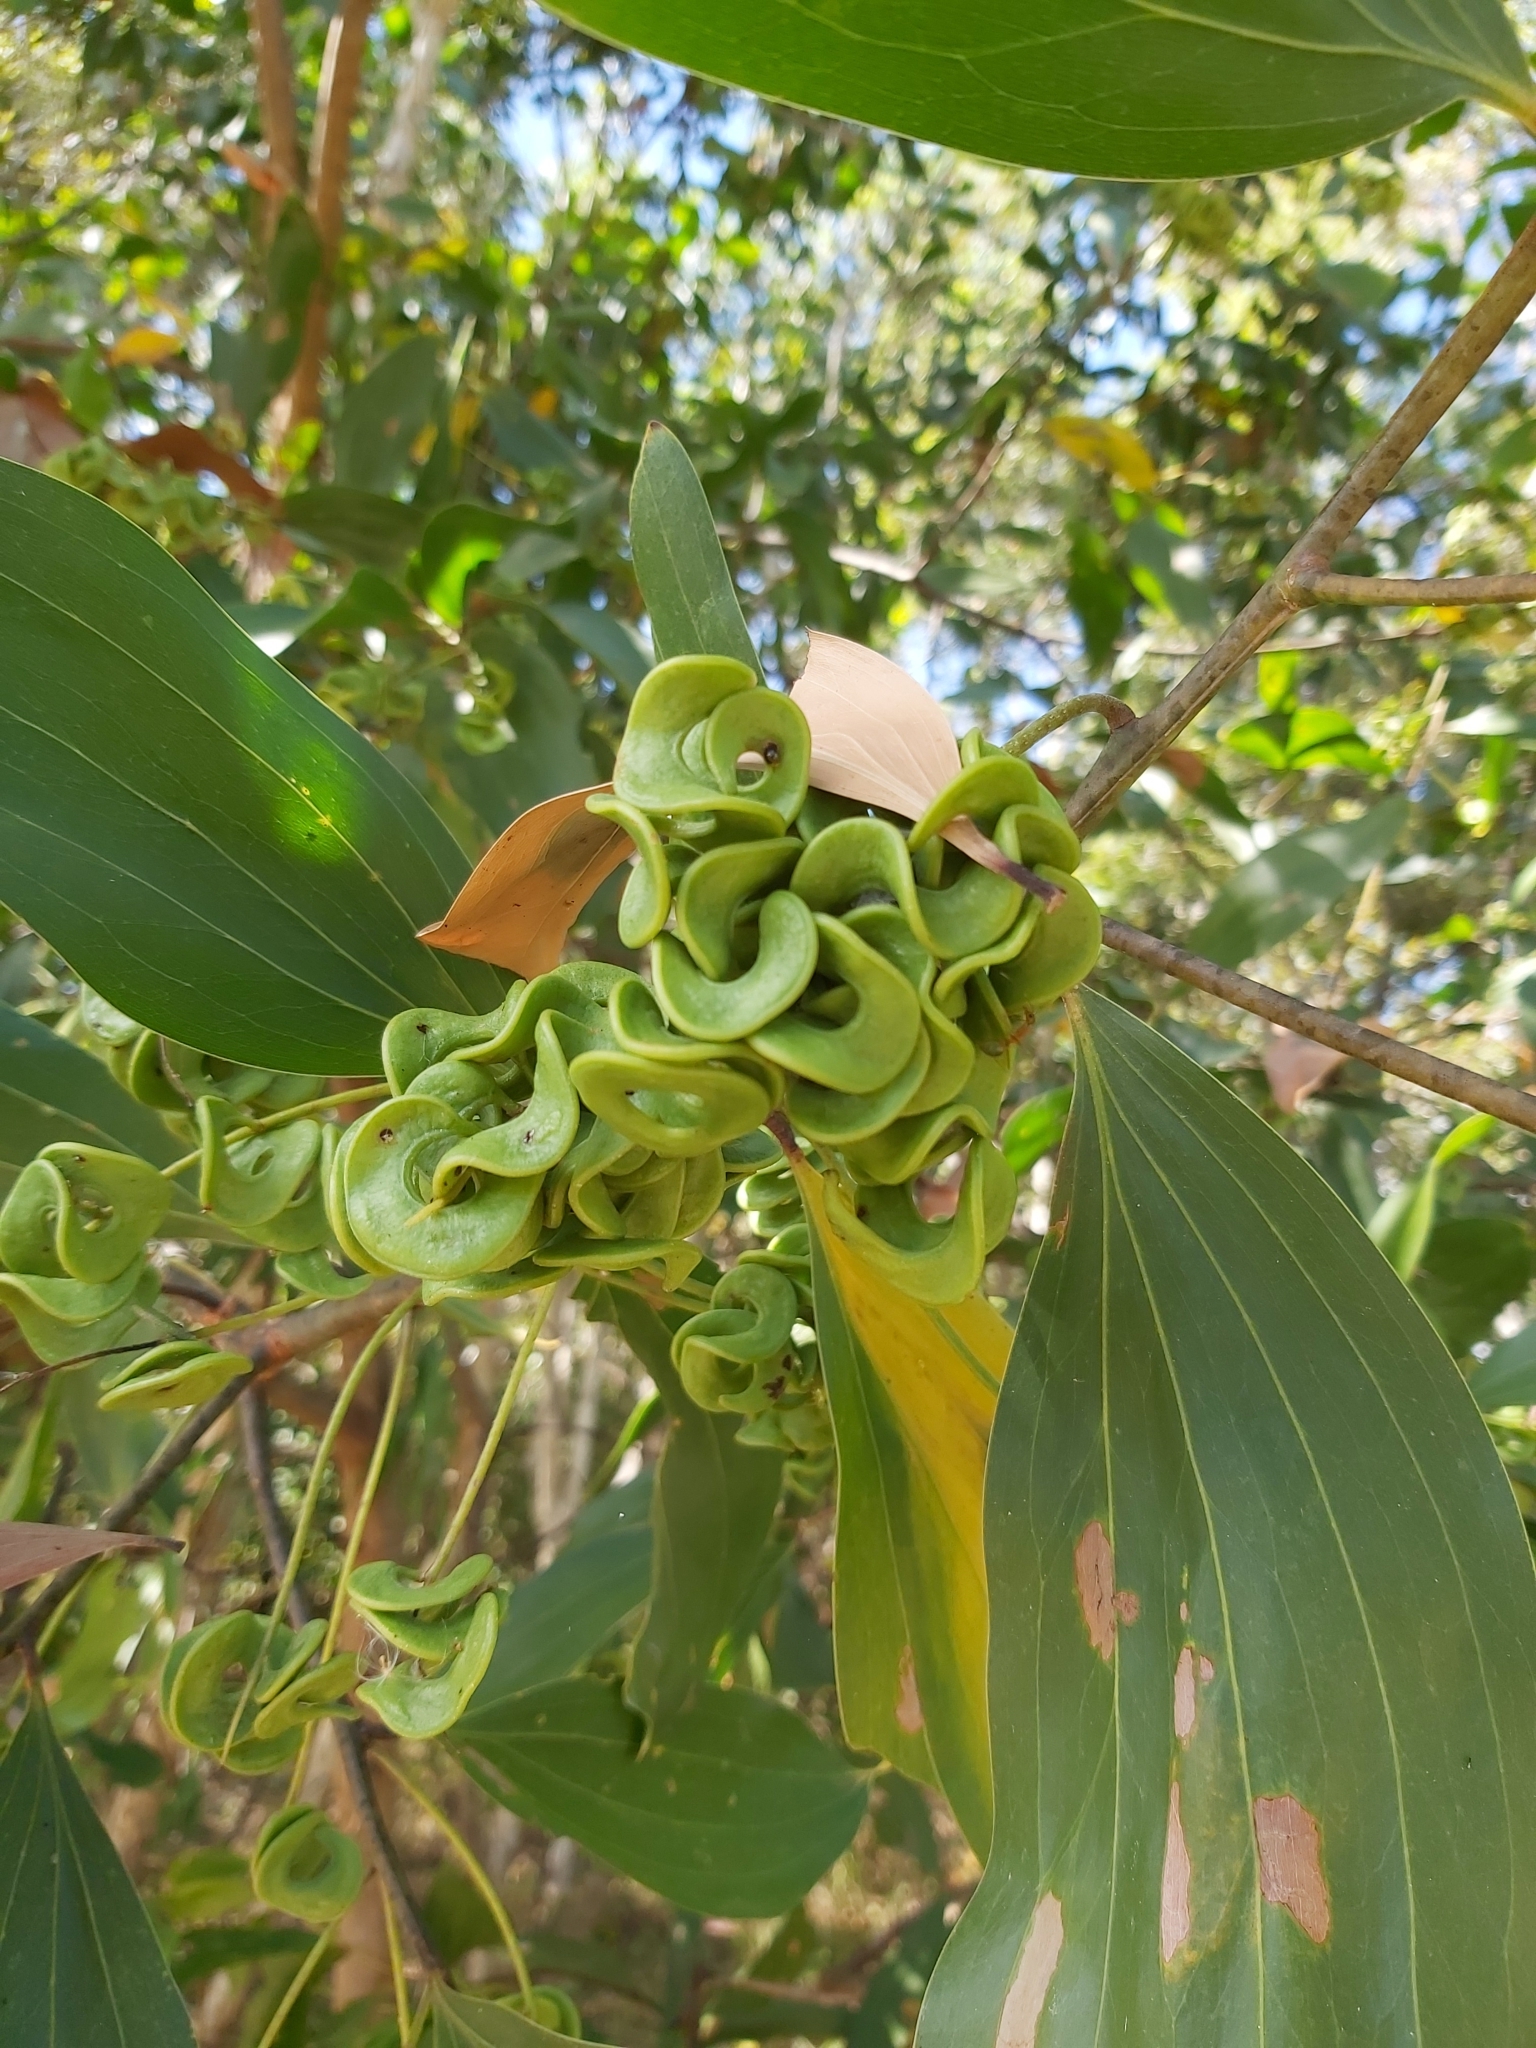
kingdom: Plantae
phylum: Tracheophyta
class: Magnoliopsida
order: Fabales
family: Fabaceae
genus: Acacia
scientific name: Acacia mangium
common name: Black wattle
